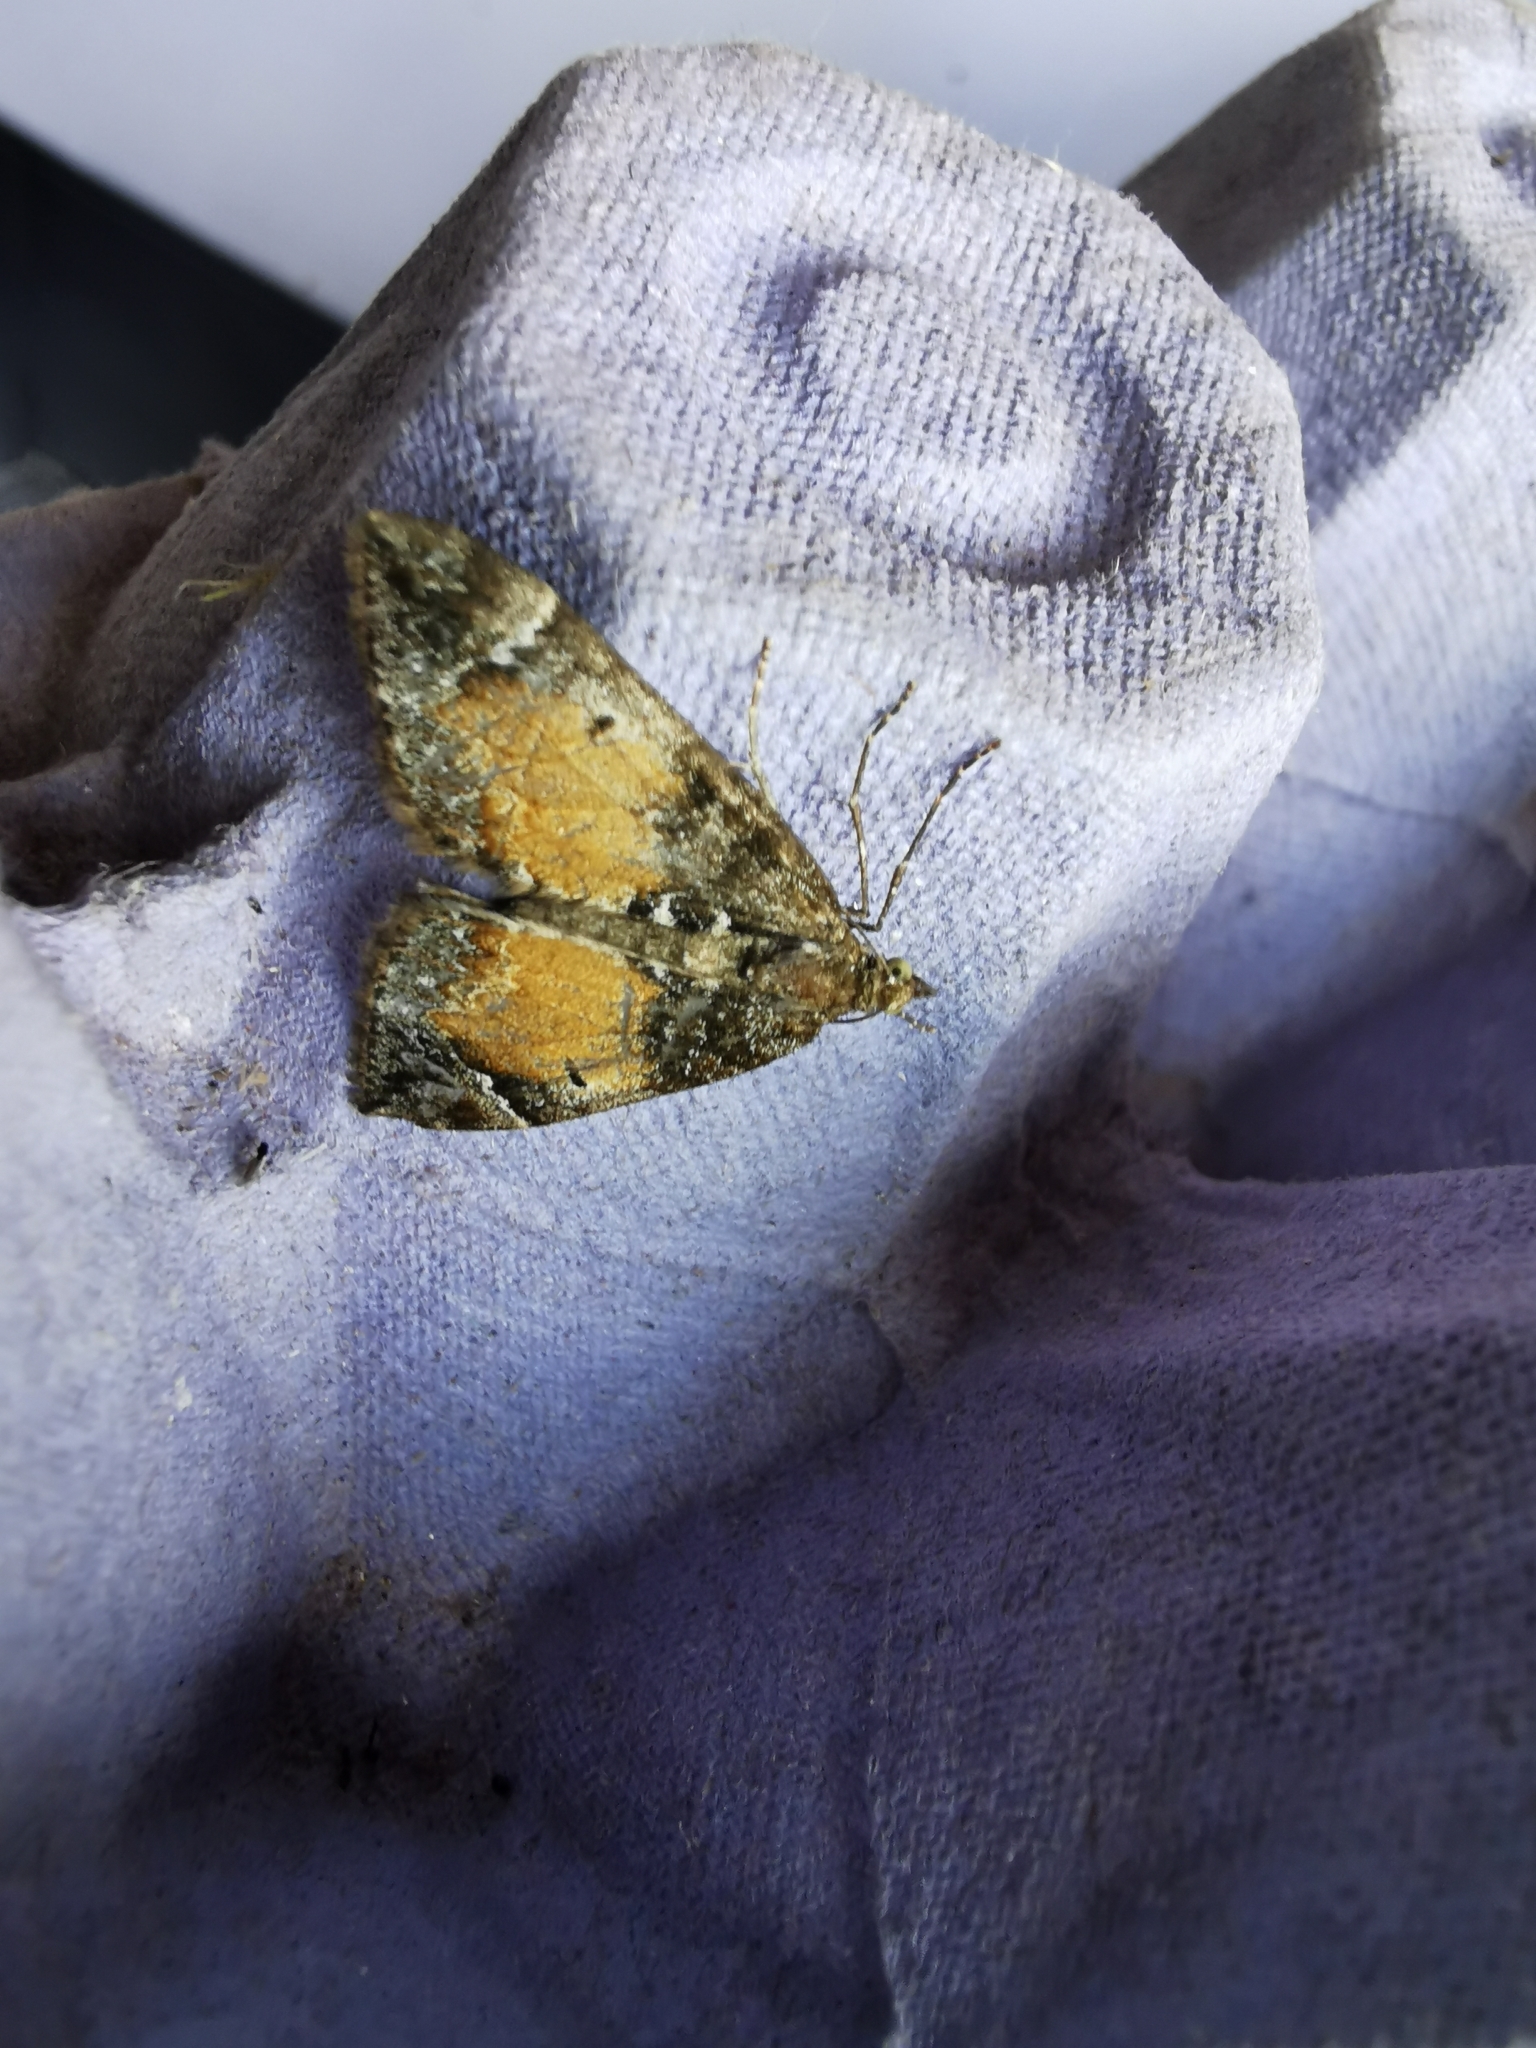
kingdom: Animalia
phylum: Arthropoda
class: Insecta
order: Lepidoptera
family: Geometridae
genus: Dysstroma
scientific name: Dysstroma truncata
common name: Common marbled carpet
